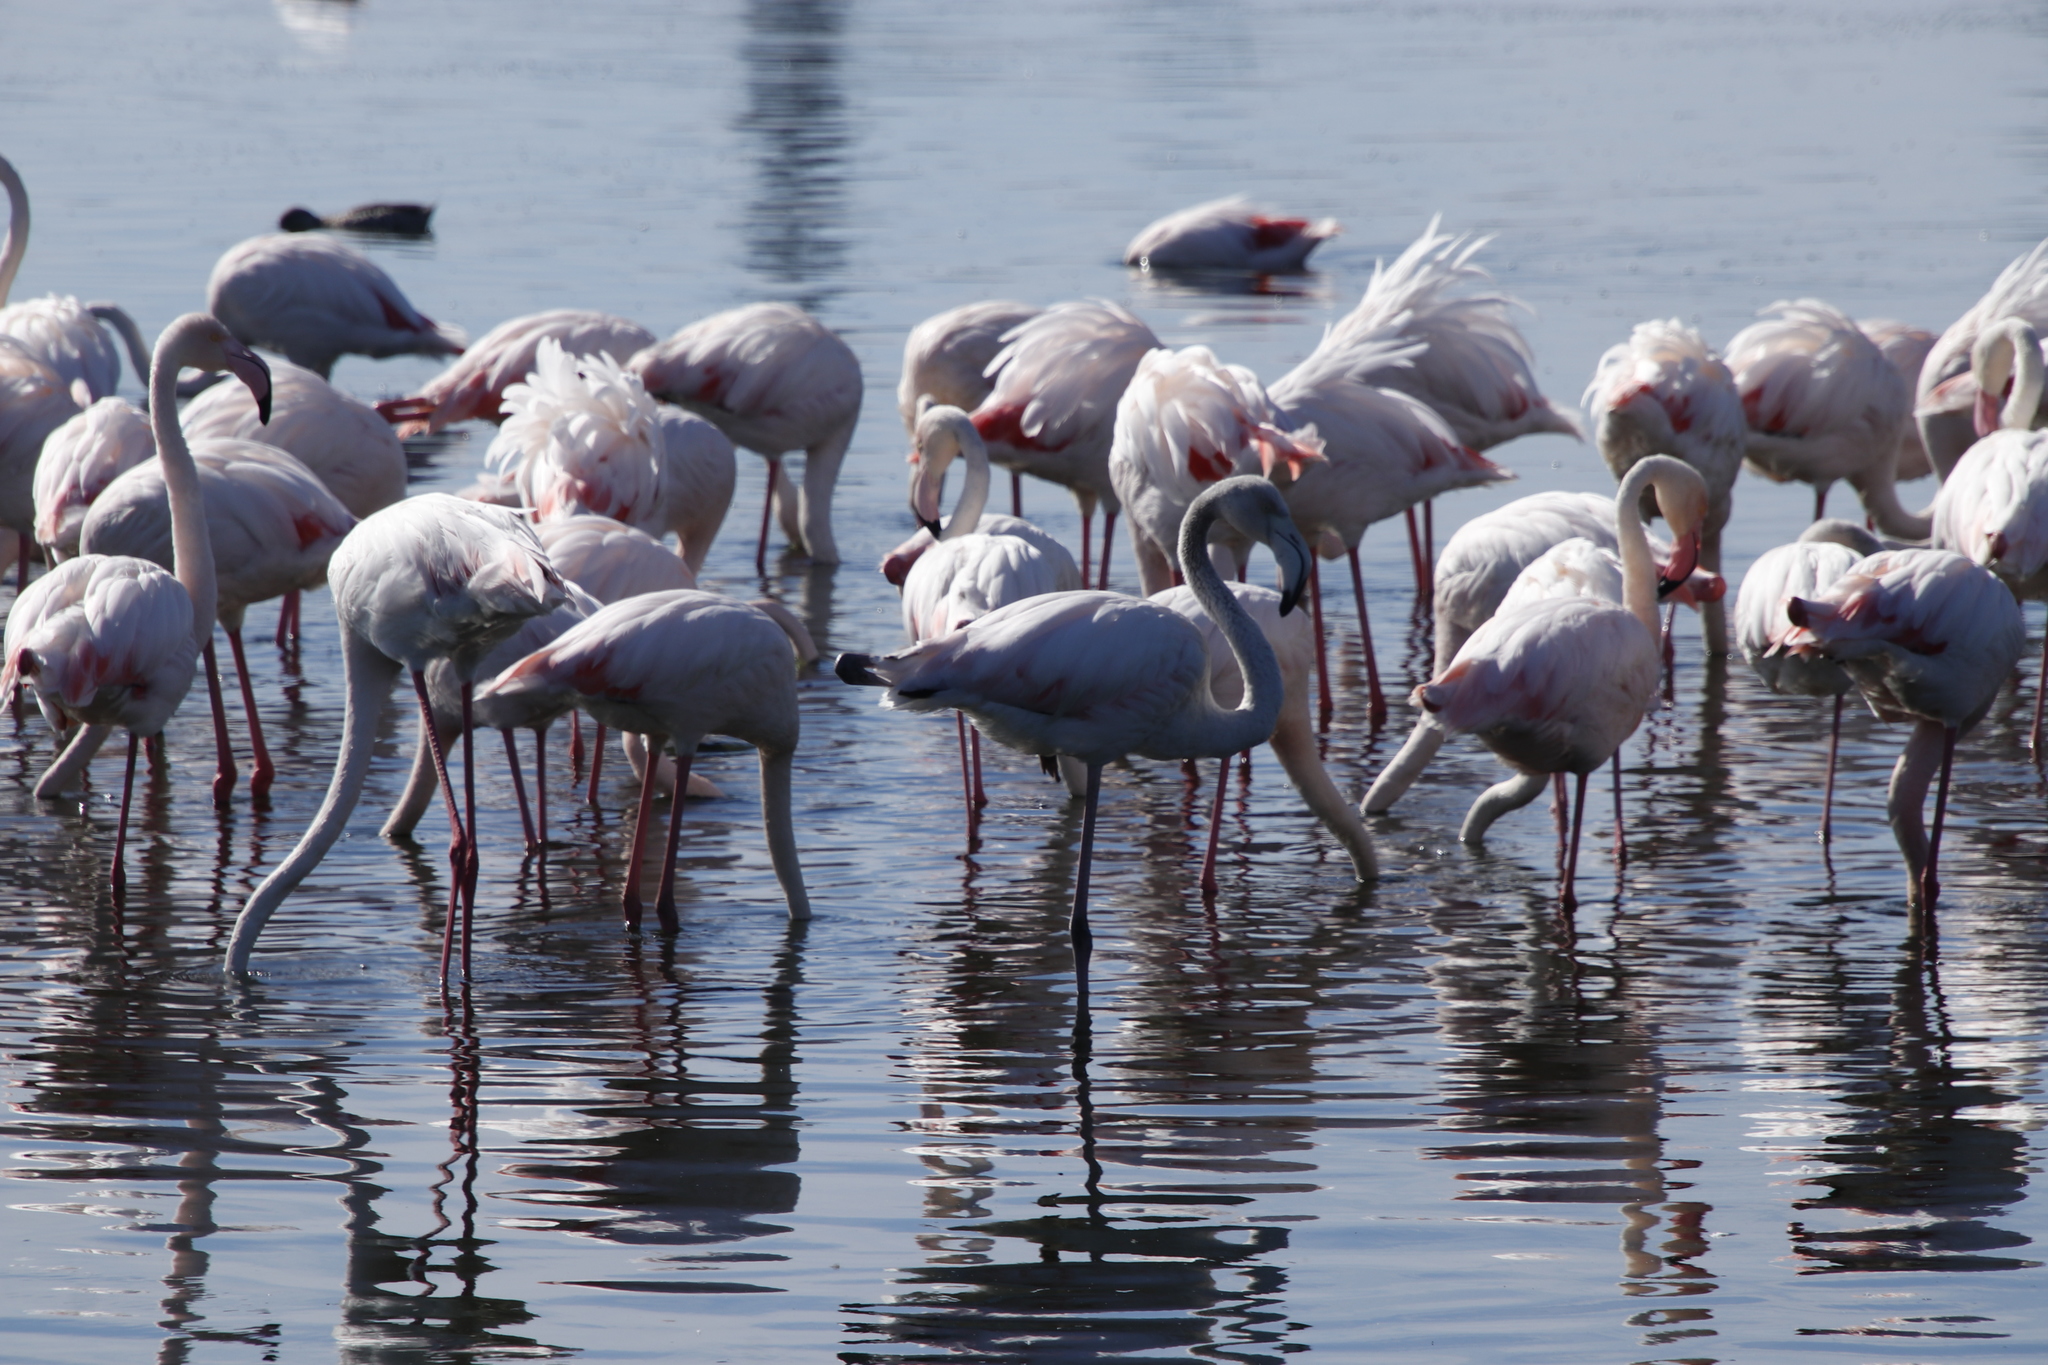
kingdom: Animalia
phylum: Chordata
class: Aves
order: Phoenicopteriformes
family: Phoenicopteridae
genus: Phoenicopterus
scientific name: Phoenicopterus roseus
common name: Greater flamingo
